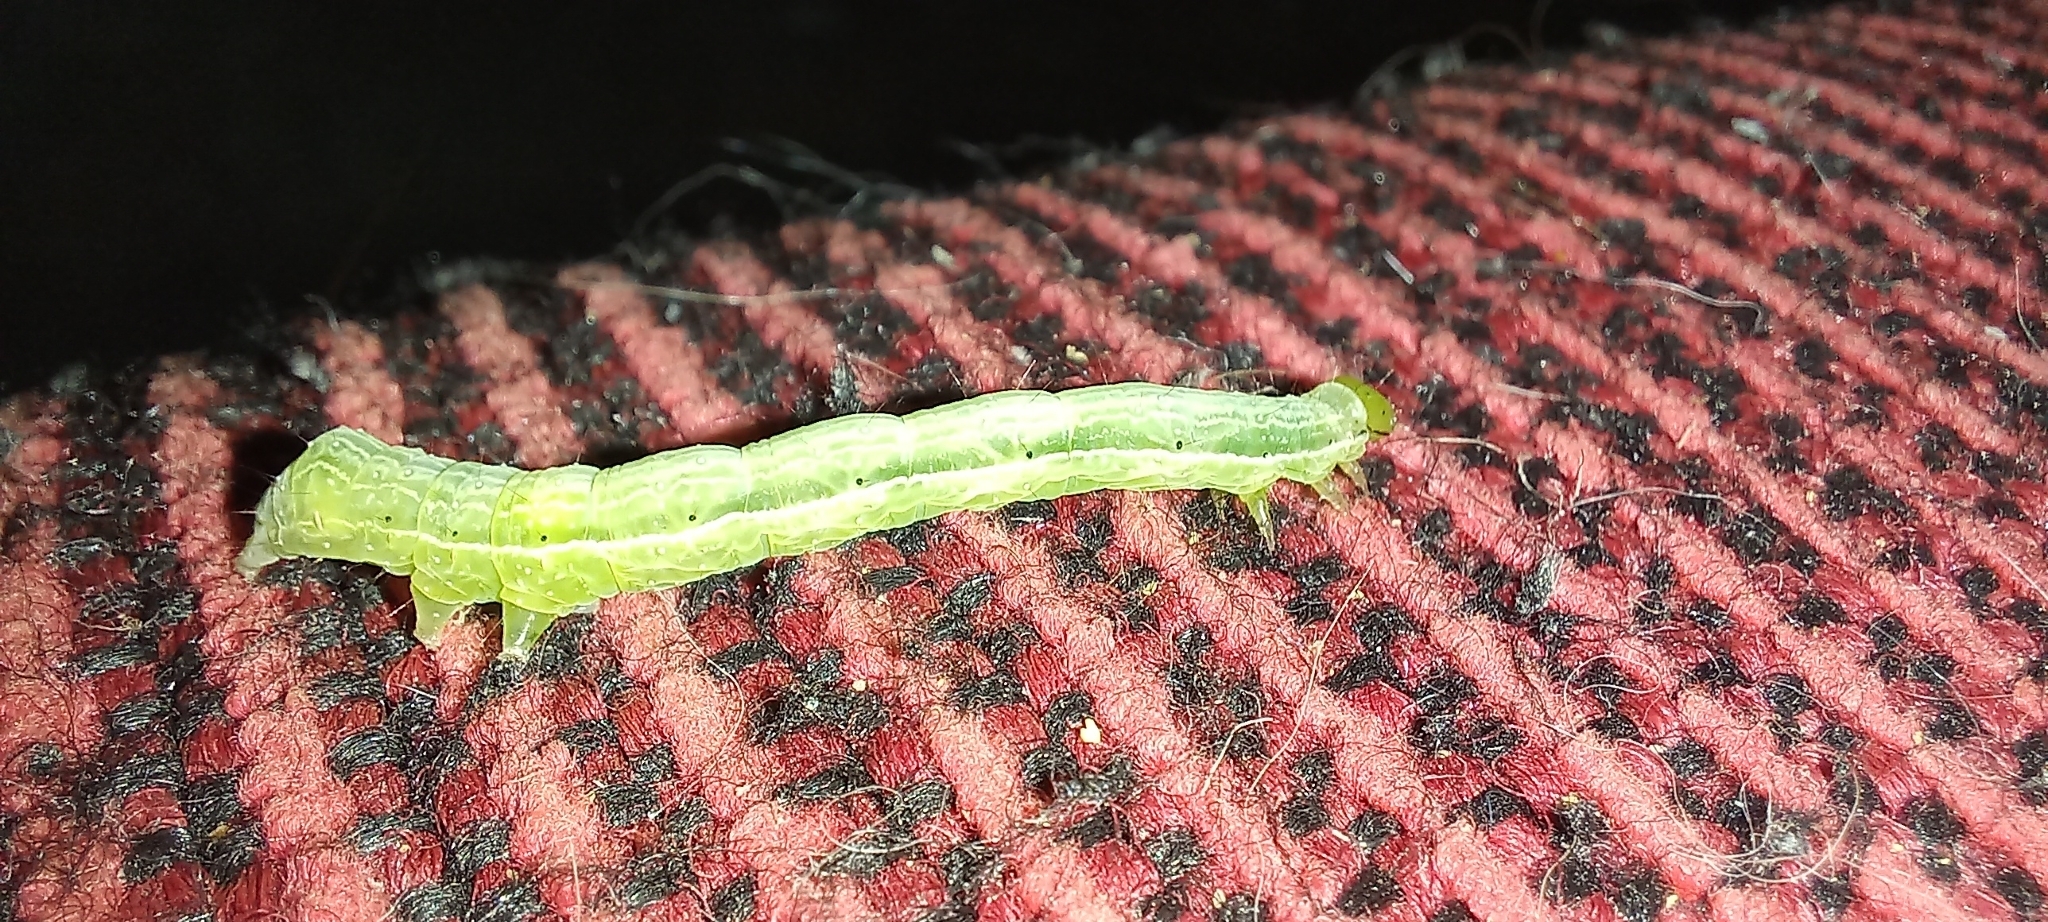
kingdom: Animalia
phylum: Arthropoda
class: Insecta
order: Lepidoptera
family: Noctuidae
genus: Chrysodeixis
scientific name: Chrysodeixis eriosoma
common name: Green garden looper
